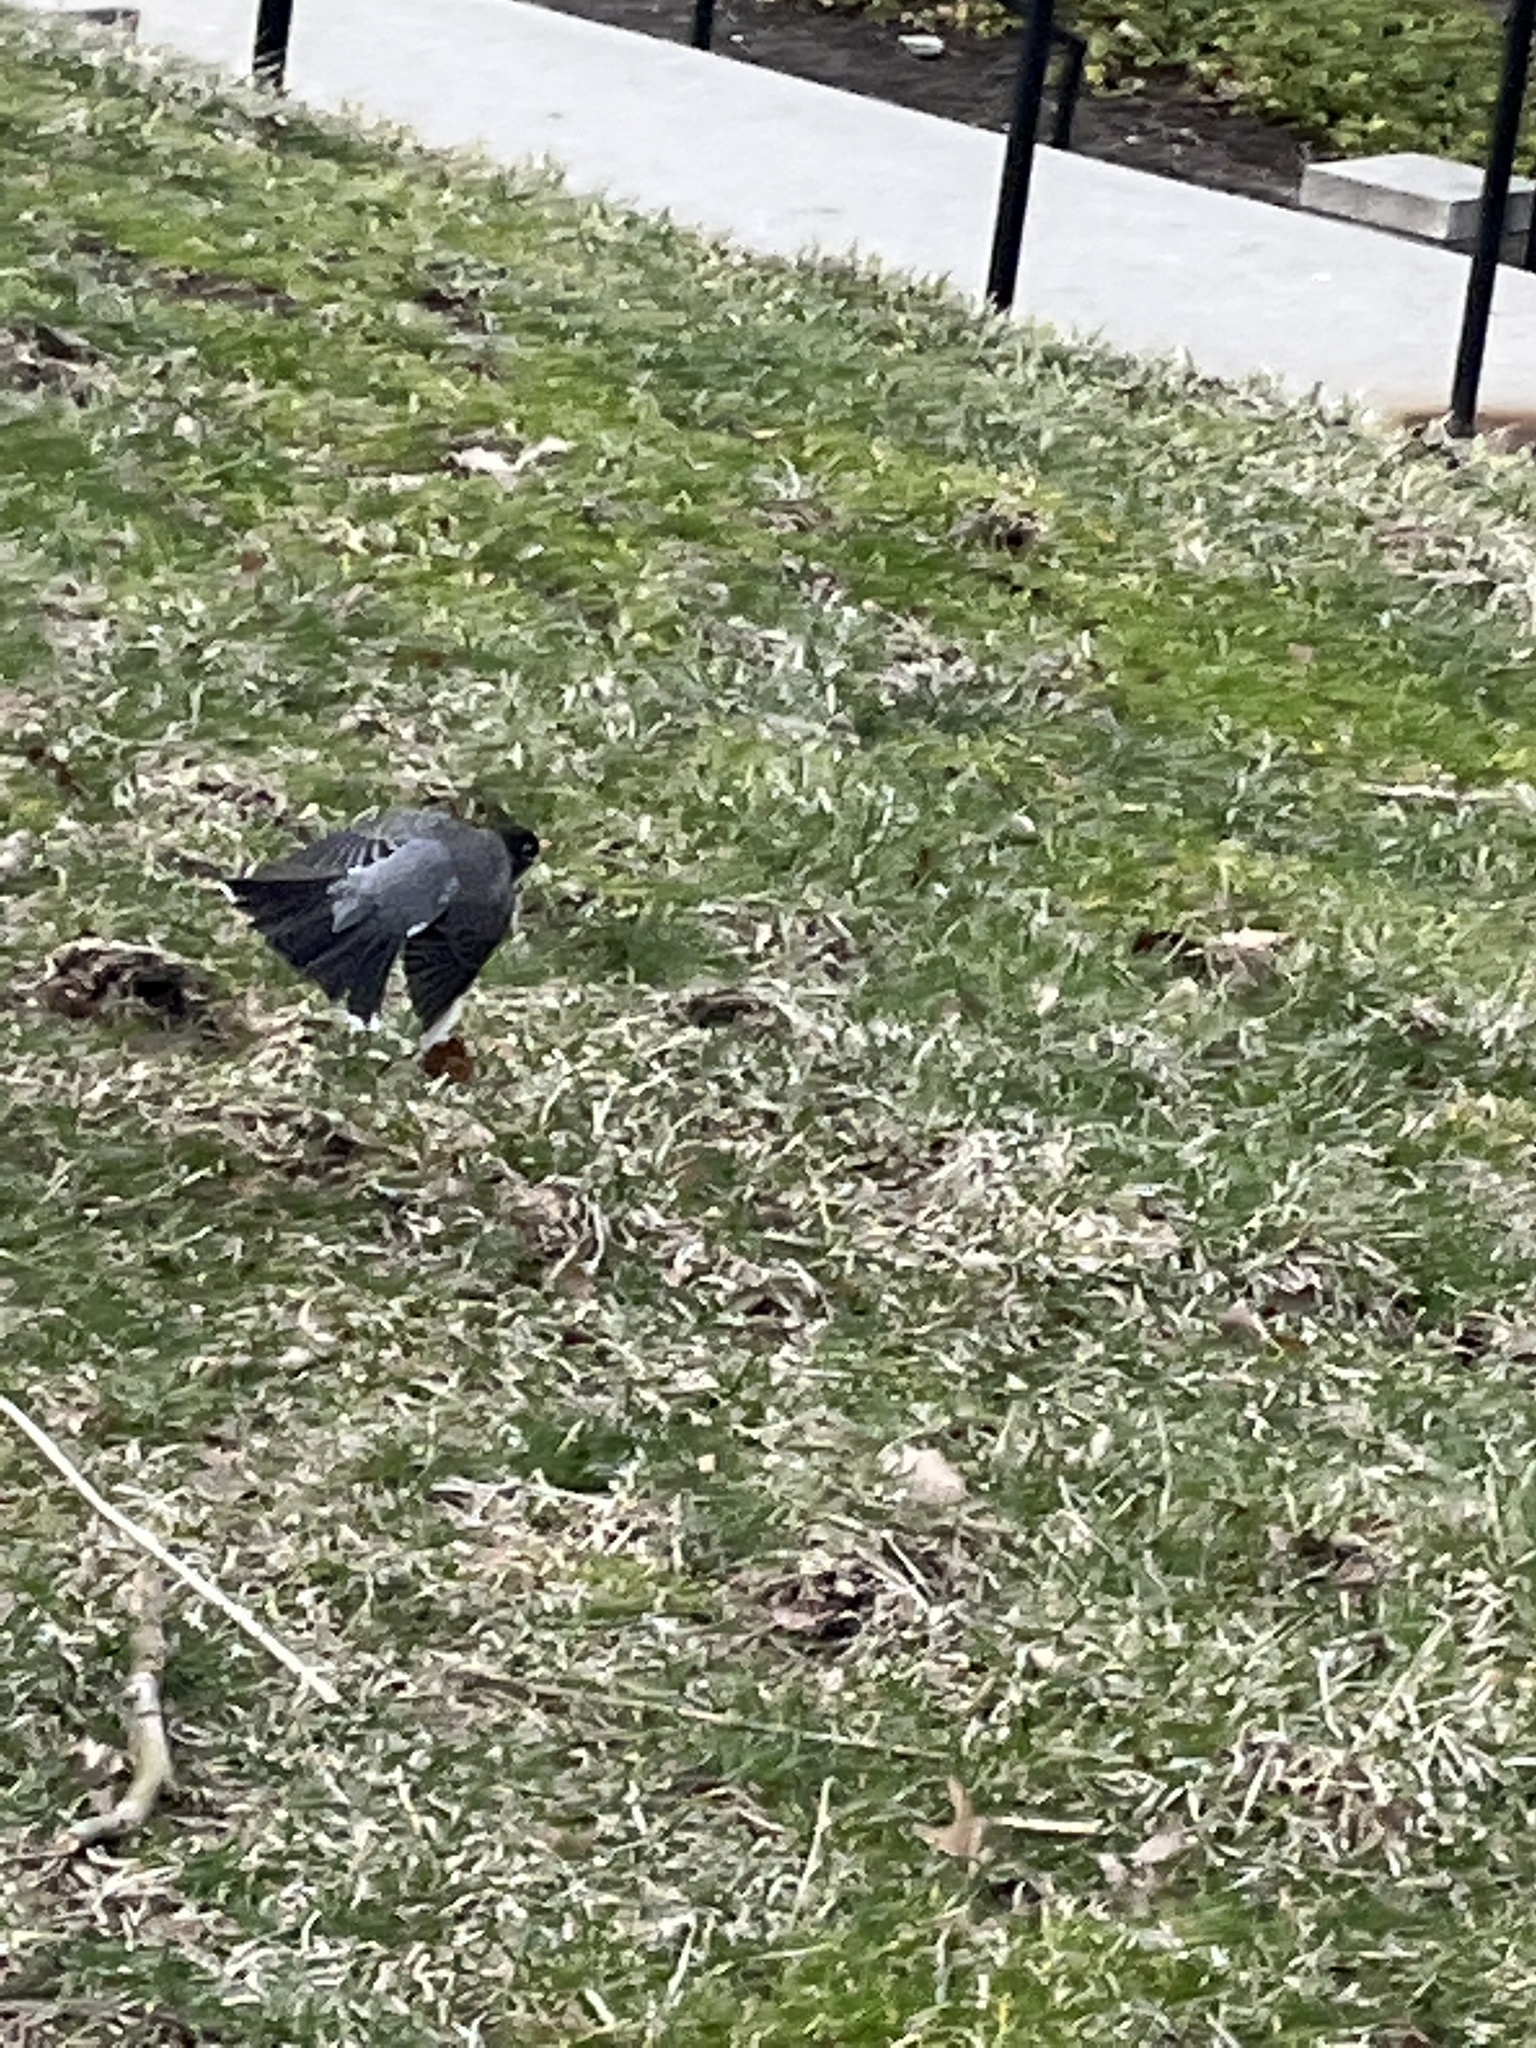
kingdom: Animalia
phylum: Chordata
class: Aves
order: Passeriformes
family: Turdidae
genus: Turdus
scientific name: Turdus migratorius
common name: American robin
